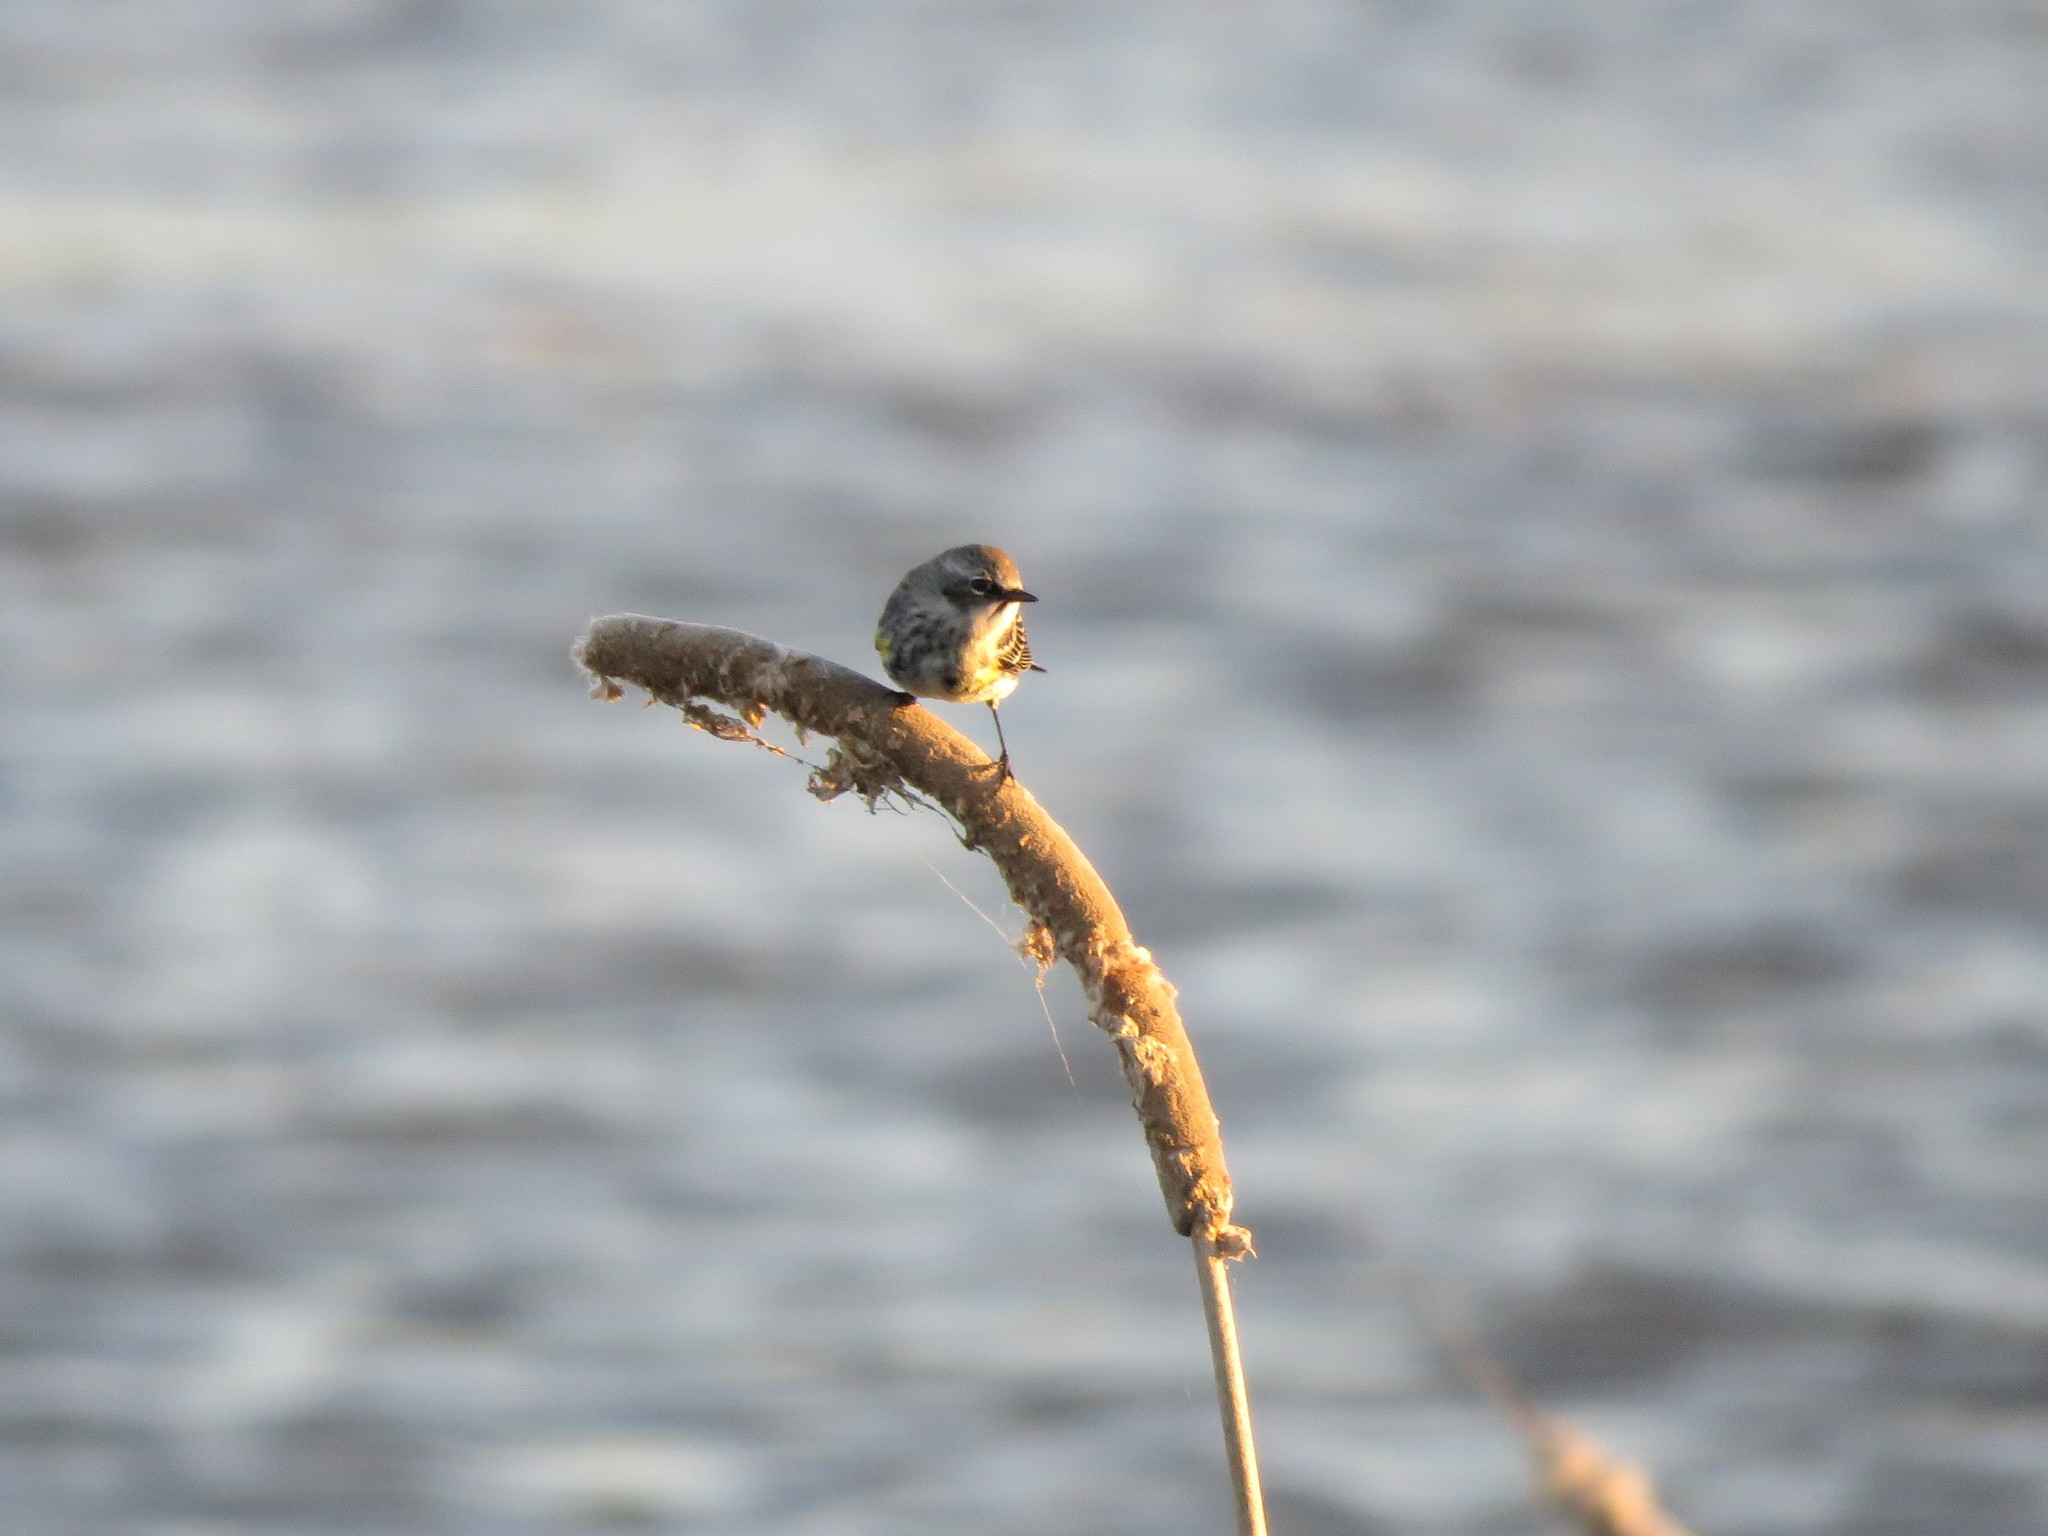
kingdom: Animalia
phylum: Chordata
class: Aves
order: Passeriformes
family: Parulidae
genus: Setophaga
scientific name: Setophaga coronata
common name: Myrtle warbler
